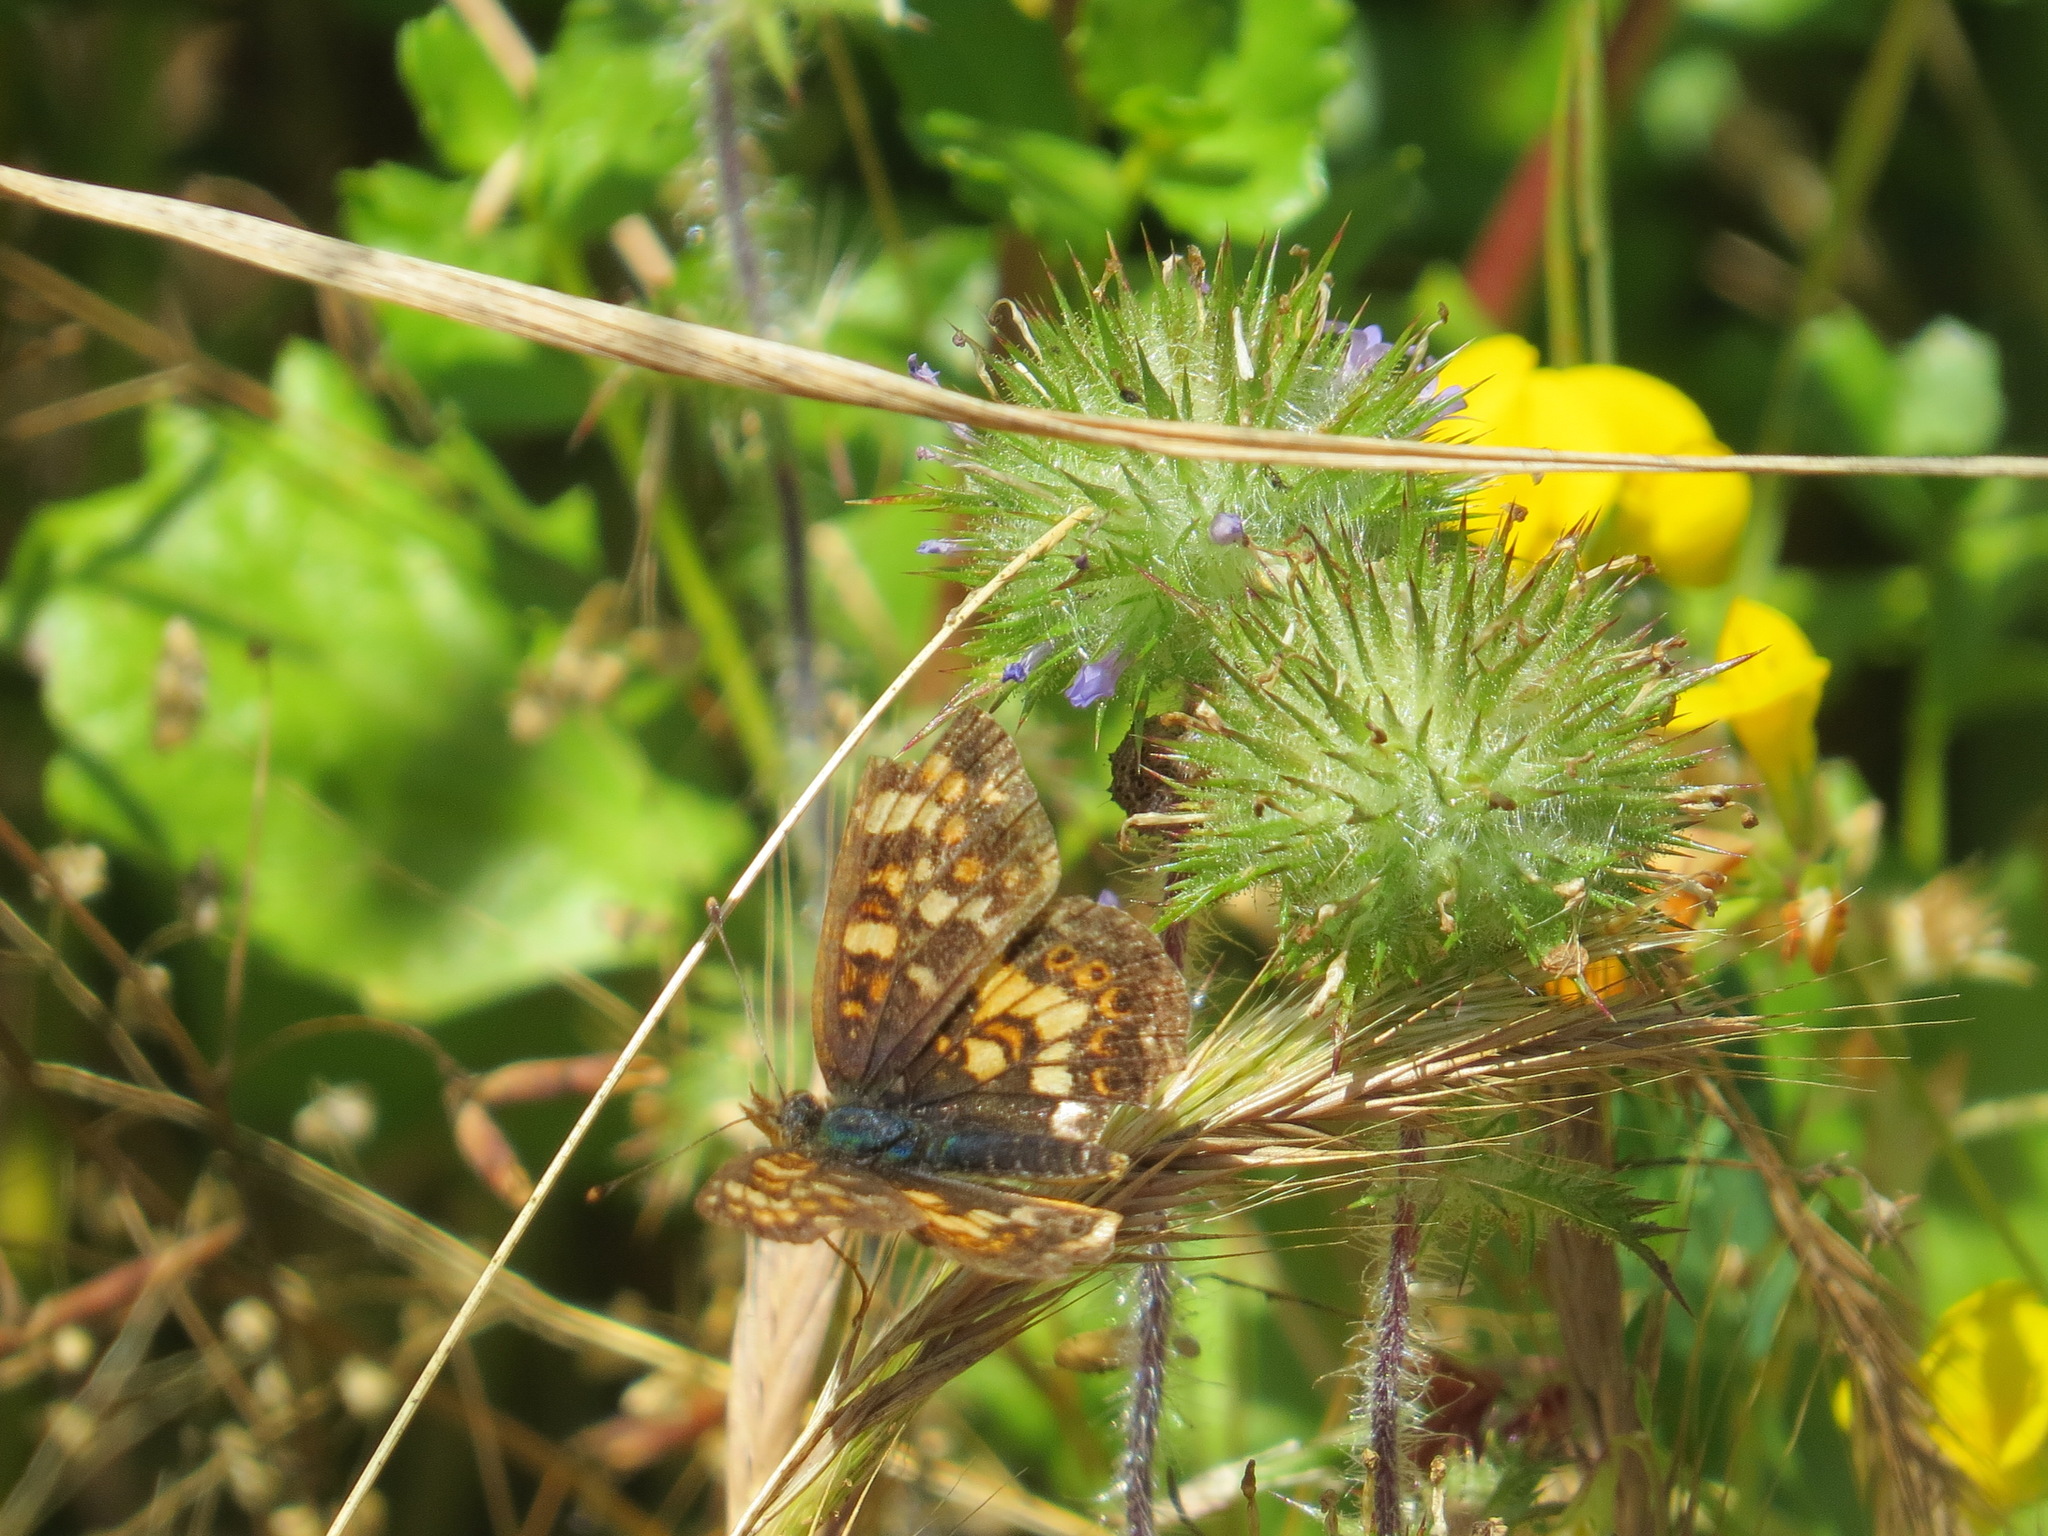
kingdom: Animalia
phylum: Arthropoda
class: Insecta
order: Lepidoptera
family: Nymphalidae
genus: Phyciodes
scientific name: Phyciodes tharos
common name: Pearl crescent
